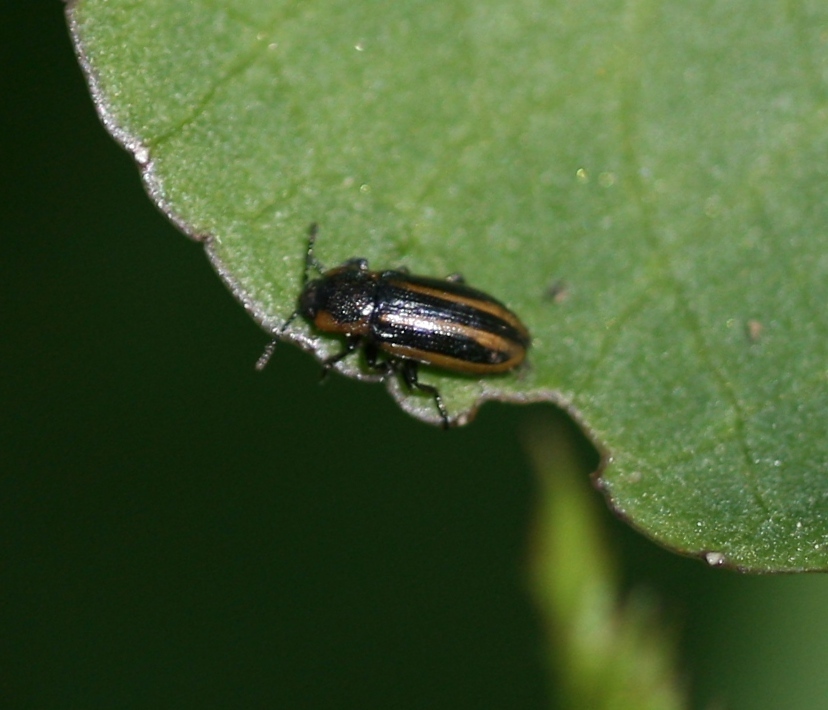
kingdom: Animalia
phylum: Arthropoda
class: Insecta
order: Coleoptera
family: Chrysomelidae
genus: Prasocuris
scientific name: Prasocuris phellandrii
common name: Leaf beetle
